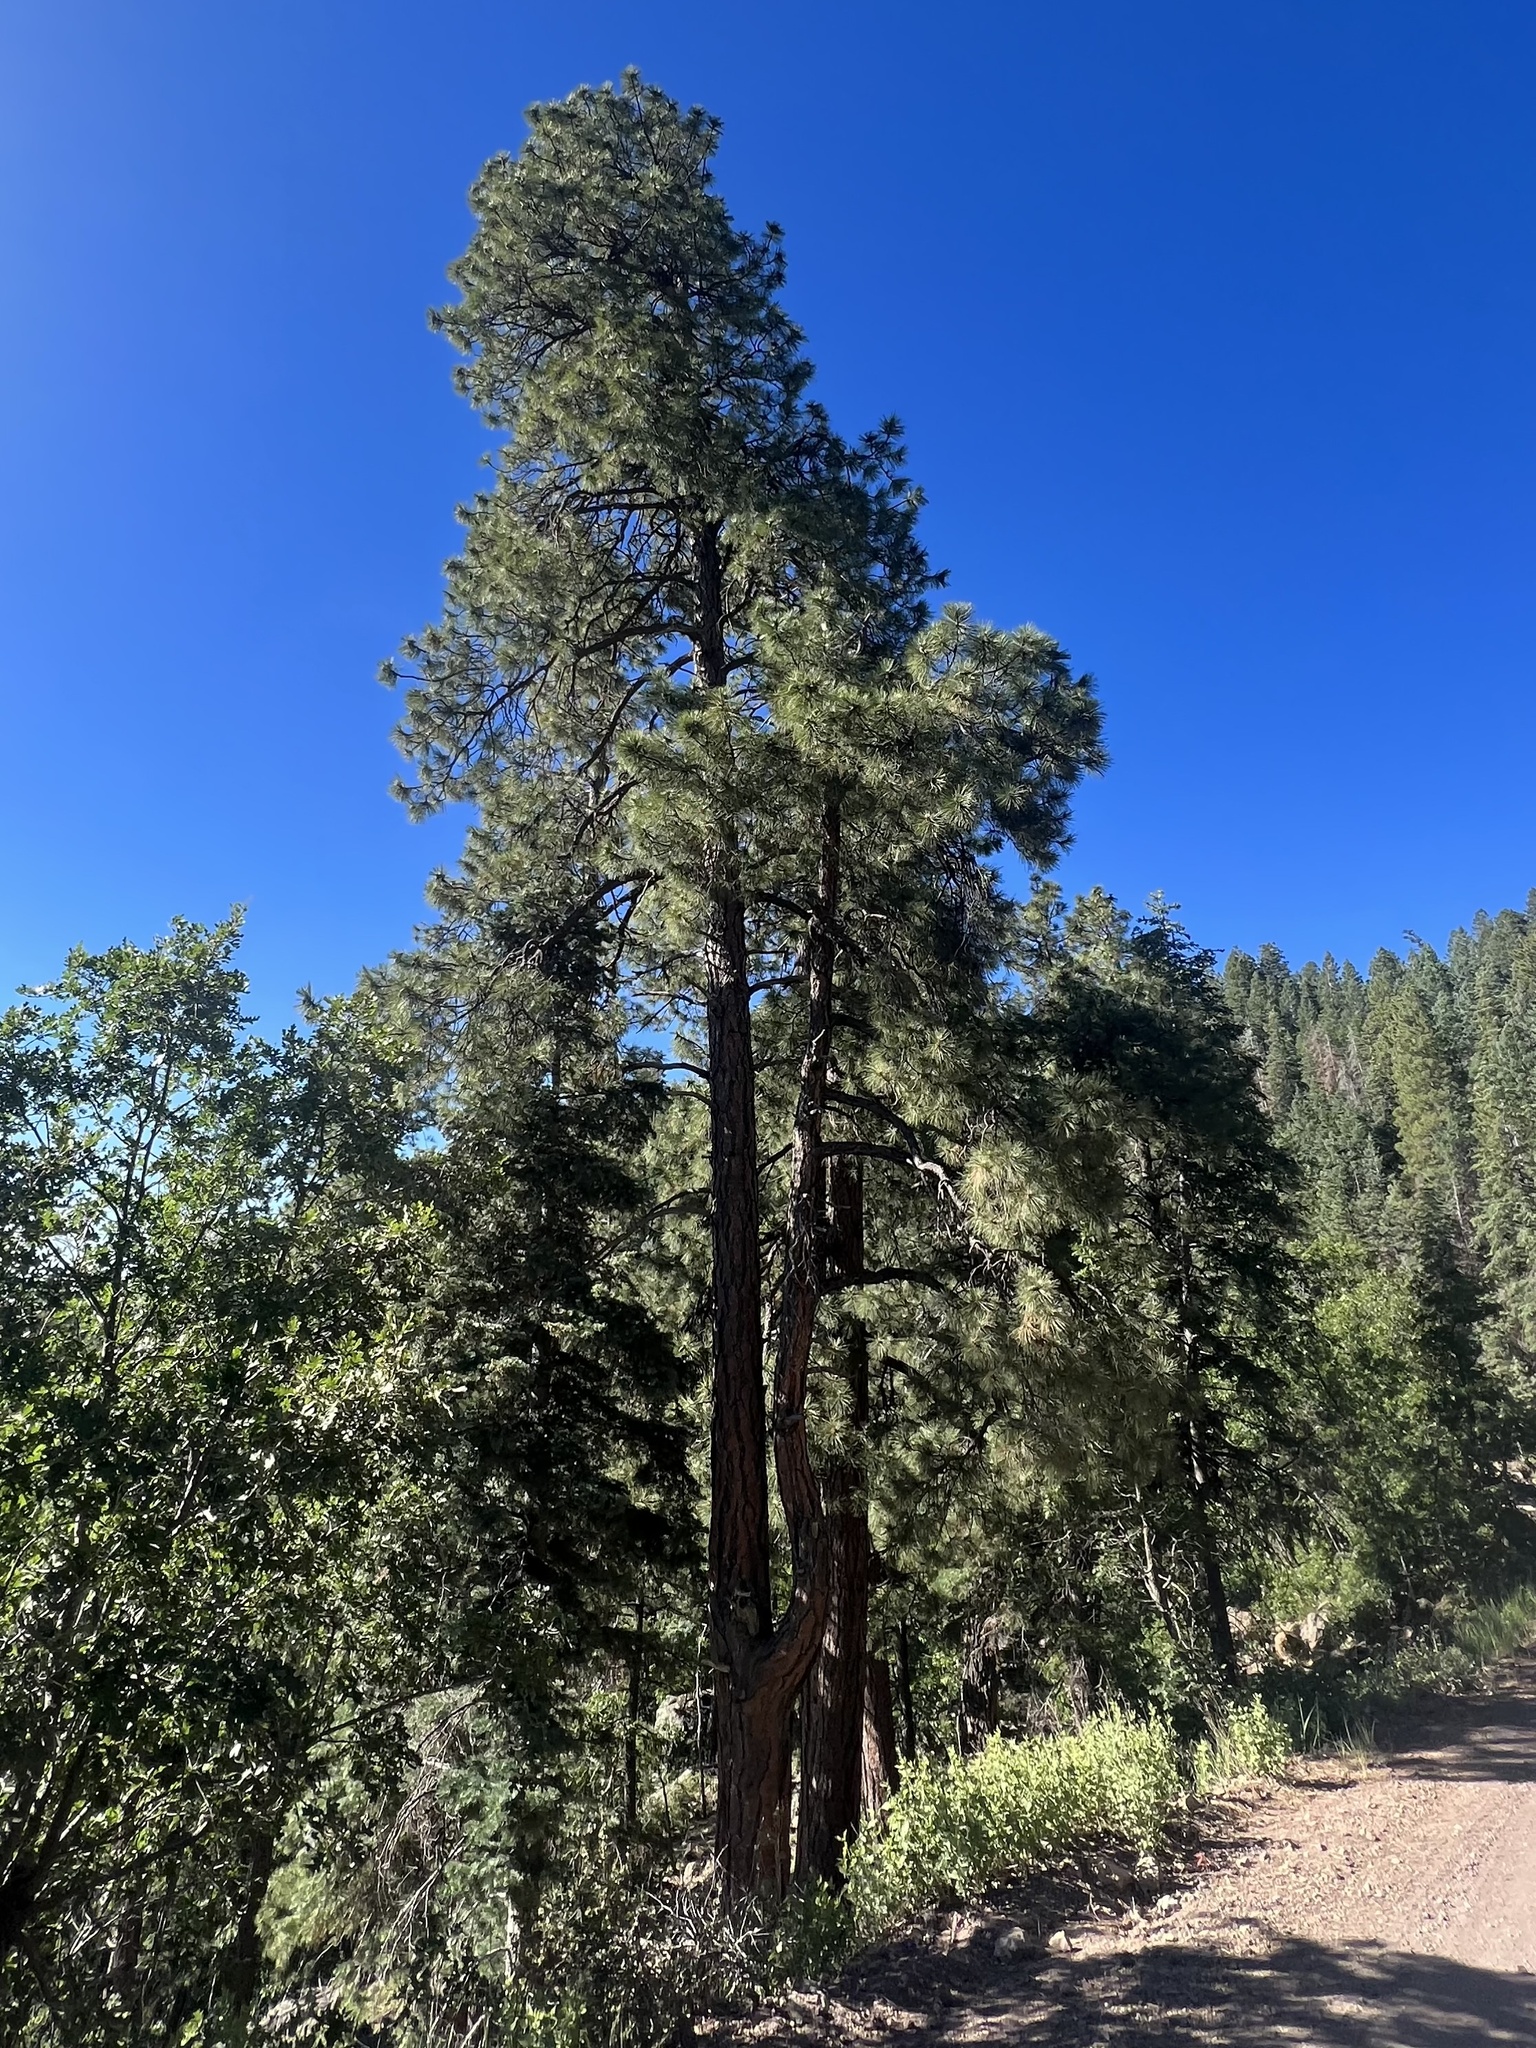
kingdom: Plantae
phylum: Tracheophyta
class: Pinopsida
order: Pinales
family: Pinaceae
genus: Pinus
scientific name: Pinus ponderosa
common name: Western yellow-pine
